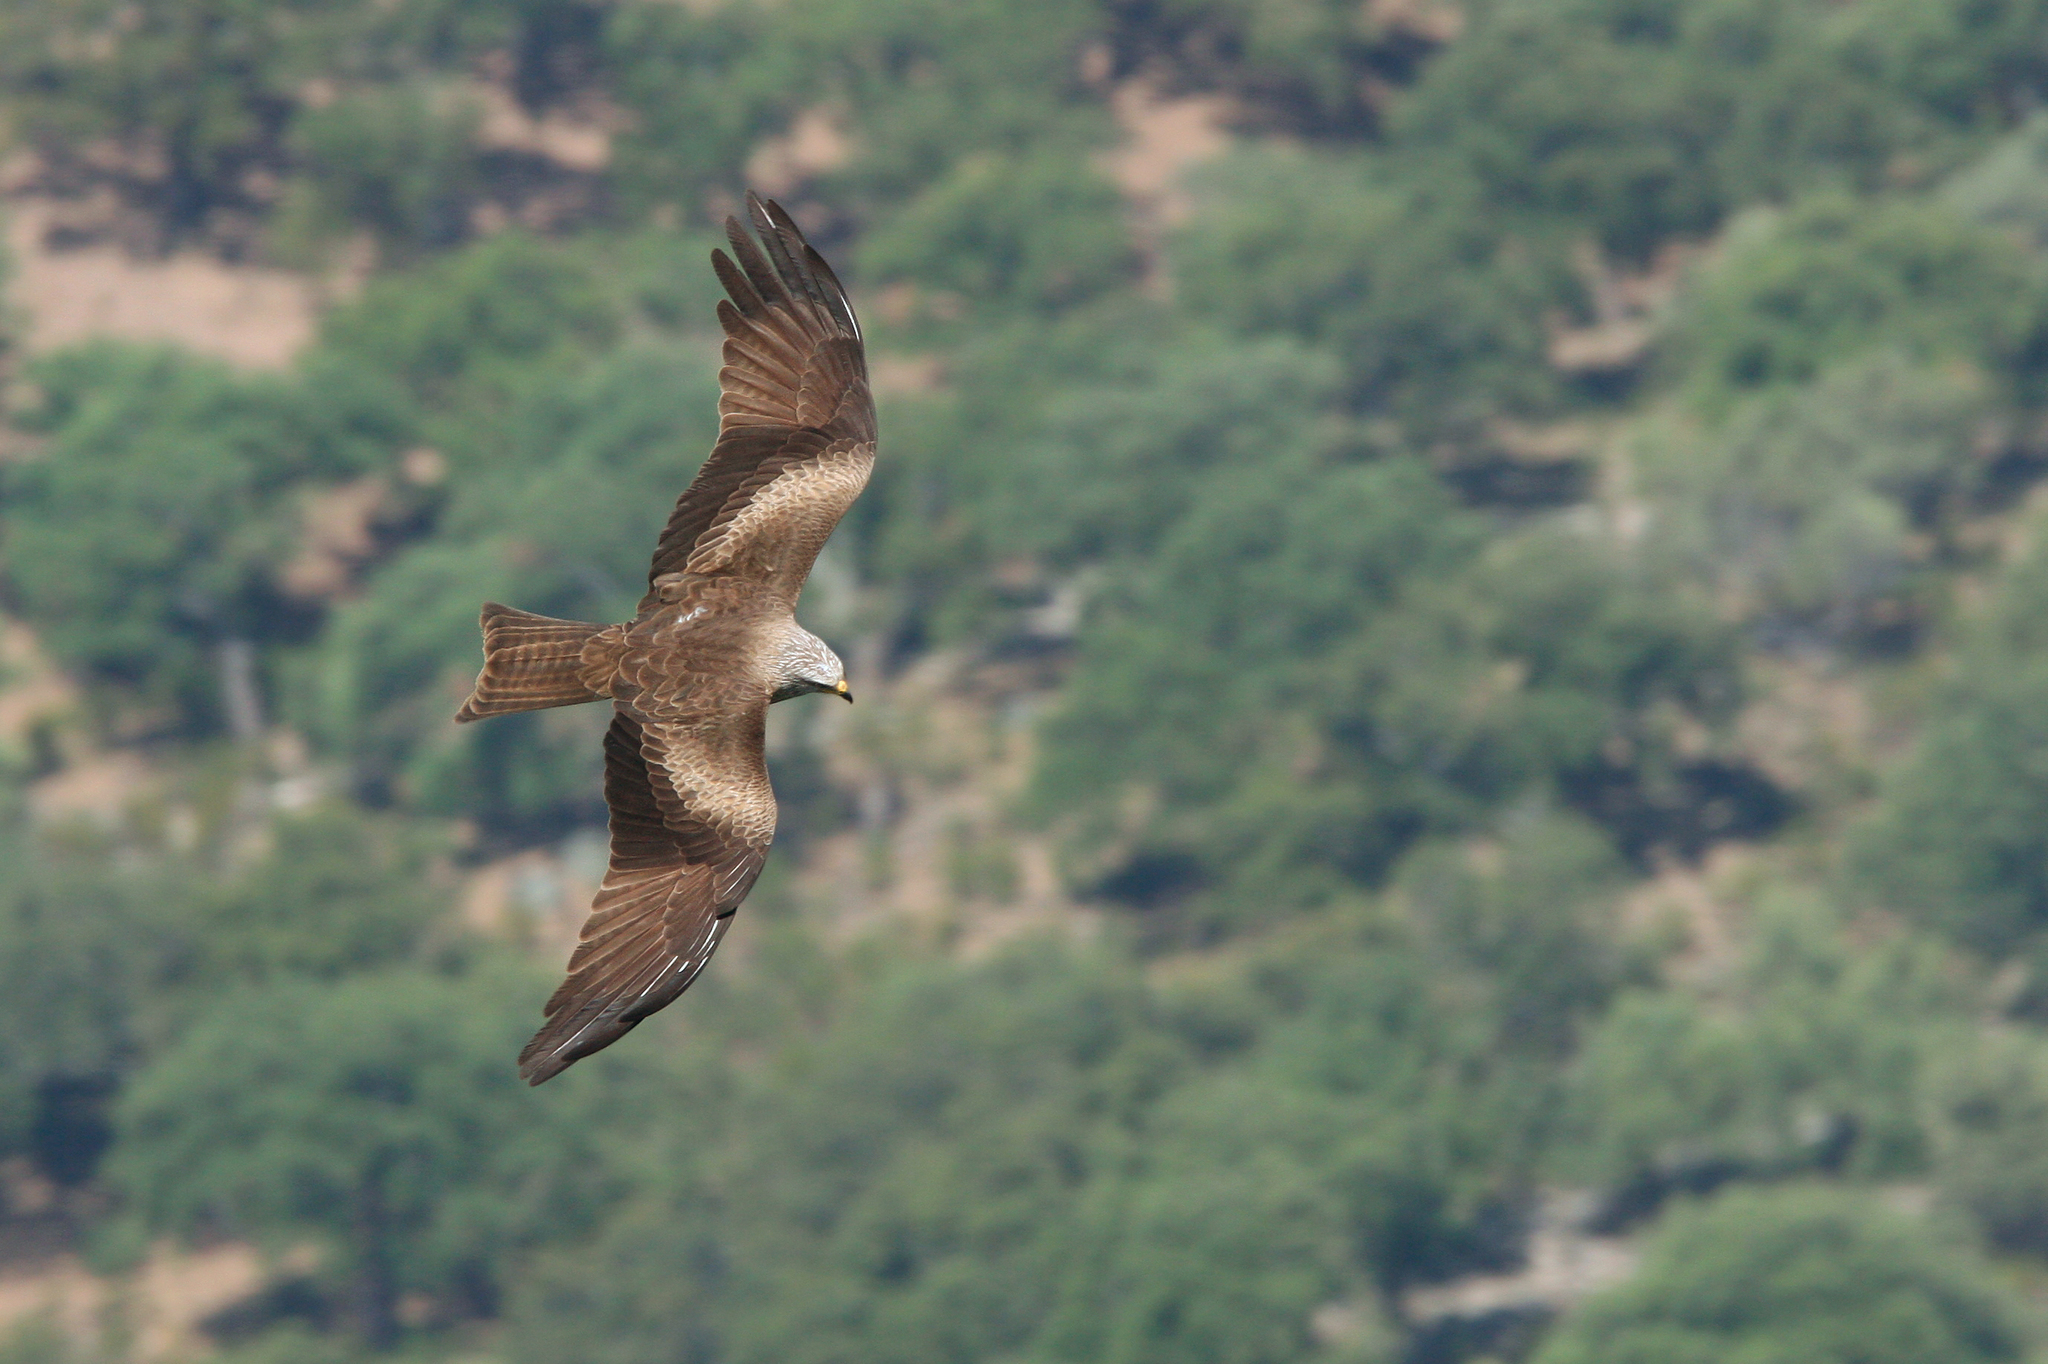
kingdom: Animalia
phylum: Chordata
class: Aves
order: Accipitriformes
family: Accipitridae
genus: Milvus
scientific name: Milvus migrans
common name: Black kite
